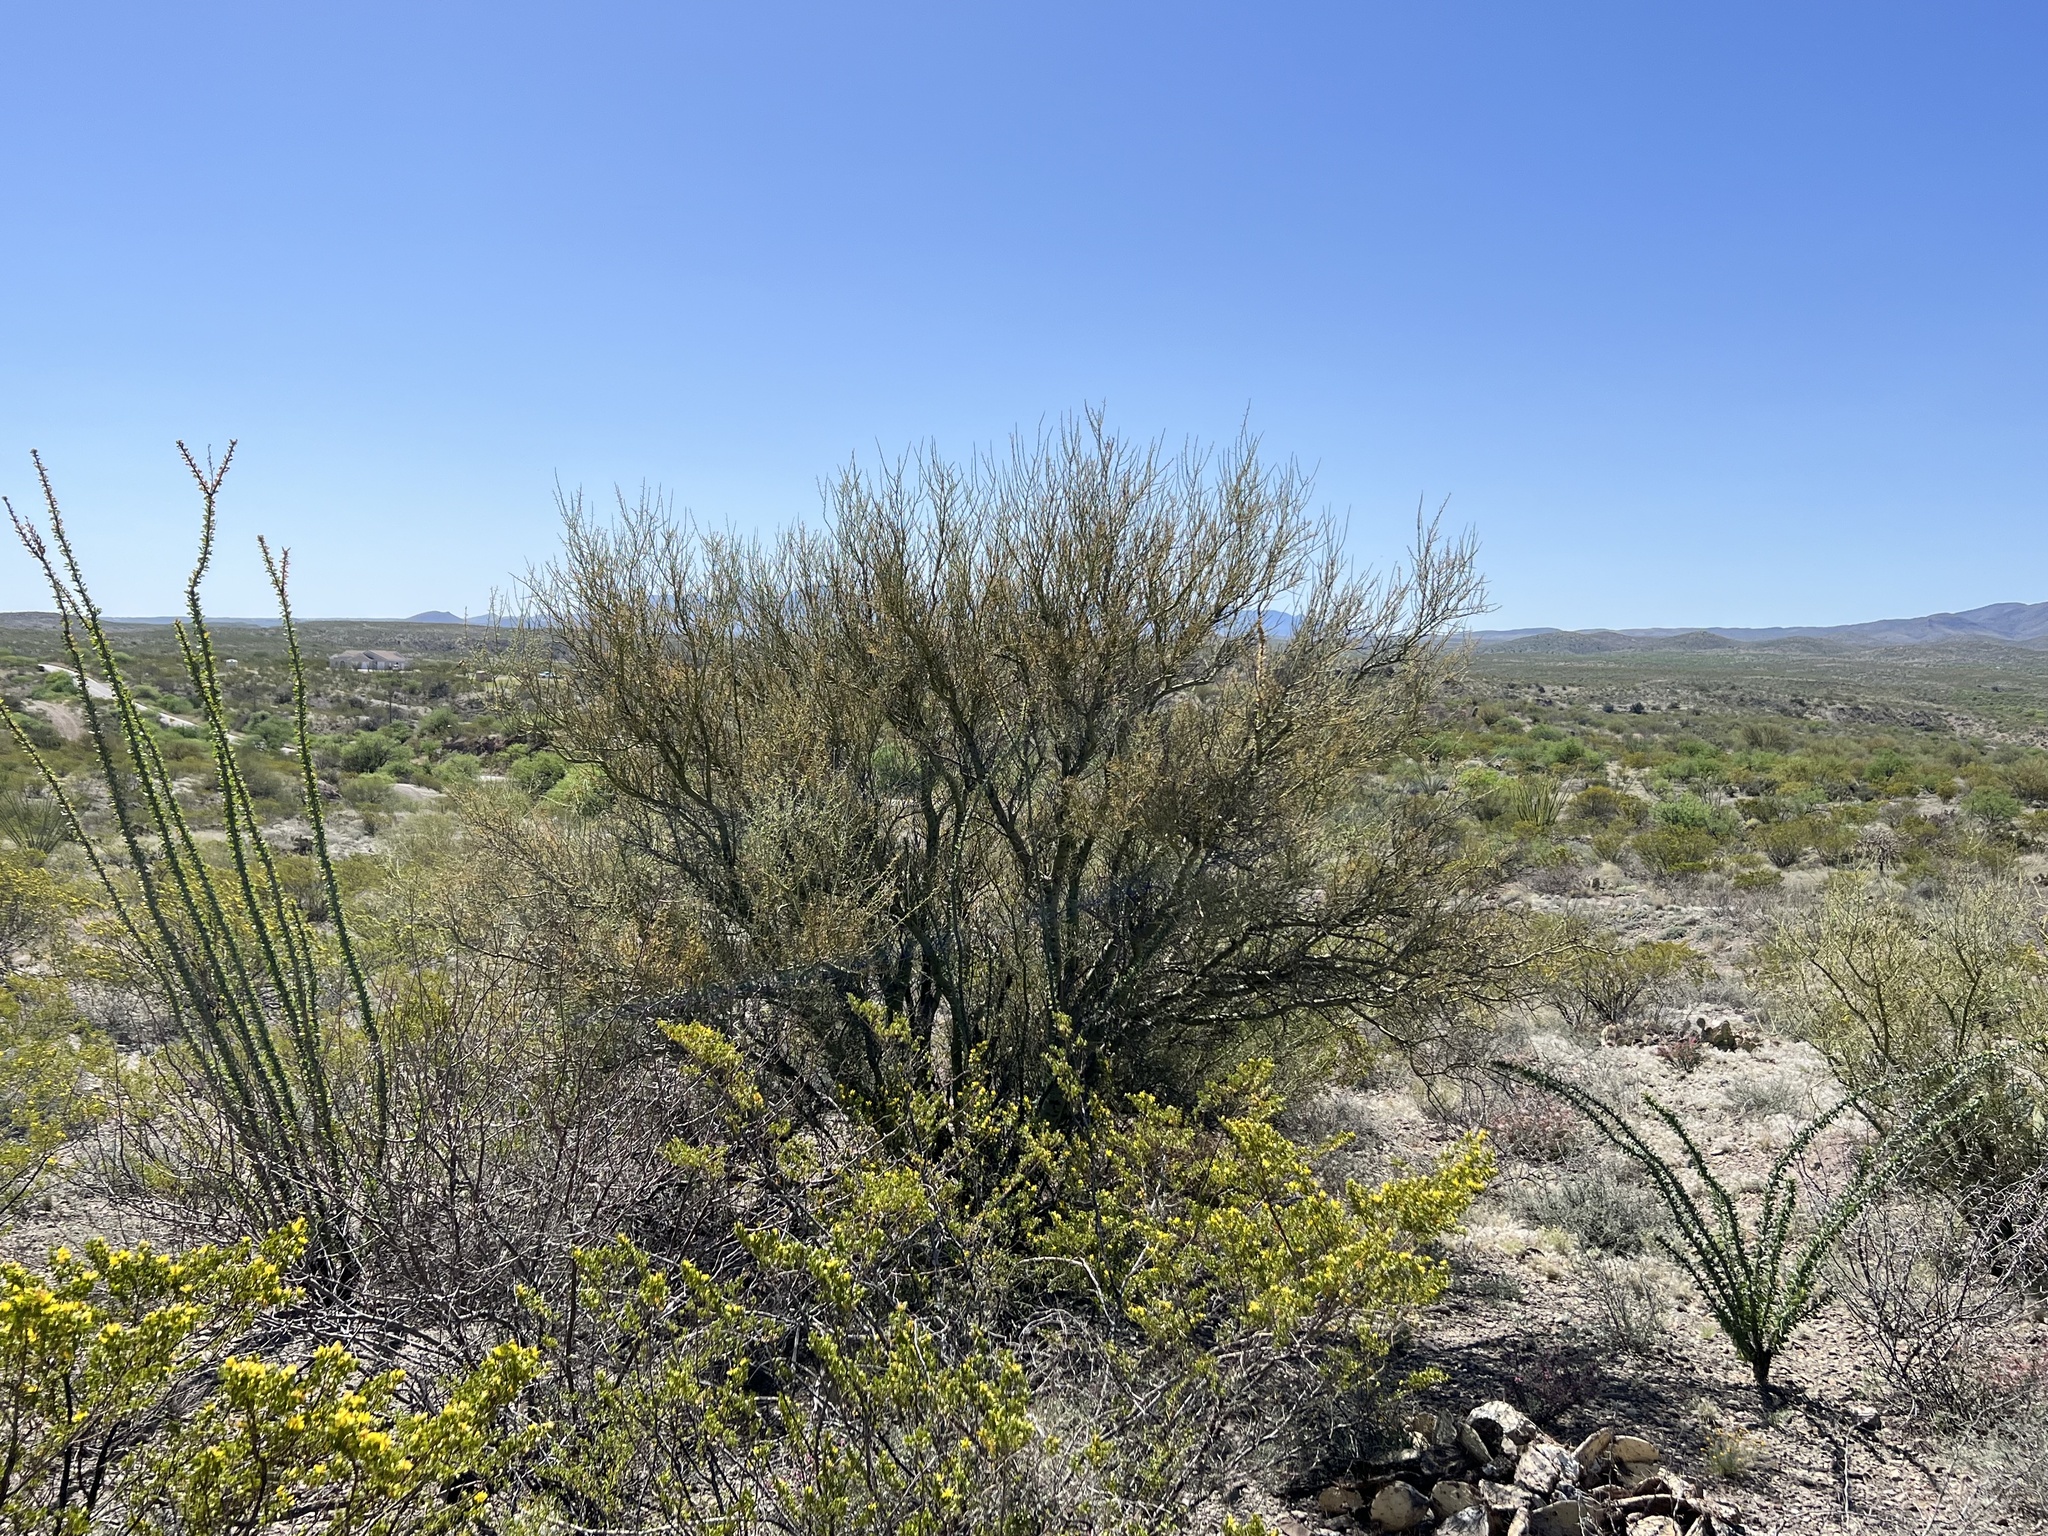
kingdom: Plantae
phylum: Tracheophyta
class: Magnoliopsida
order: Fabales
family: Fabaceae
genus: Parkinsonia
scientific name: Parkinsonia microphylla
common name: Yellow paloverde
